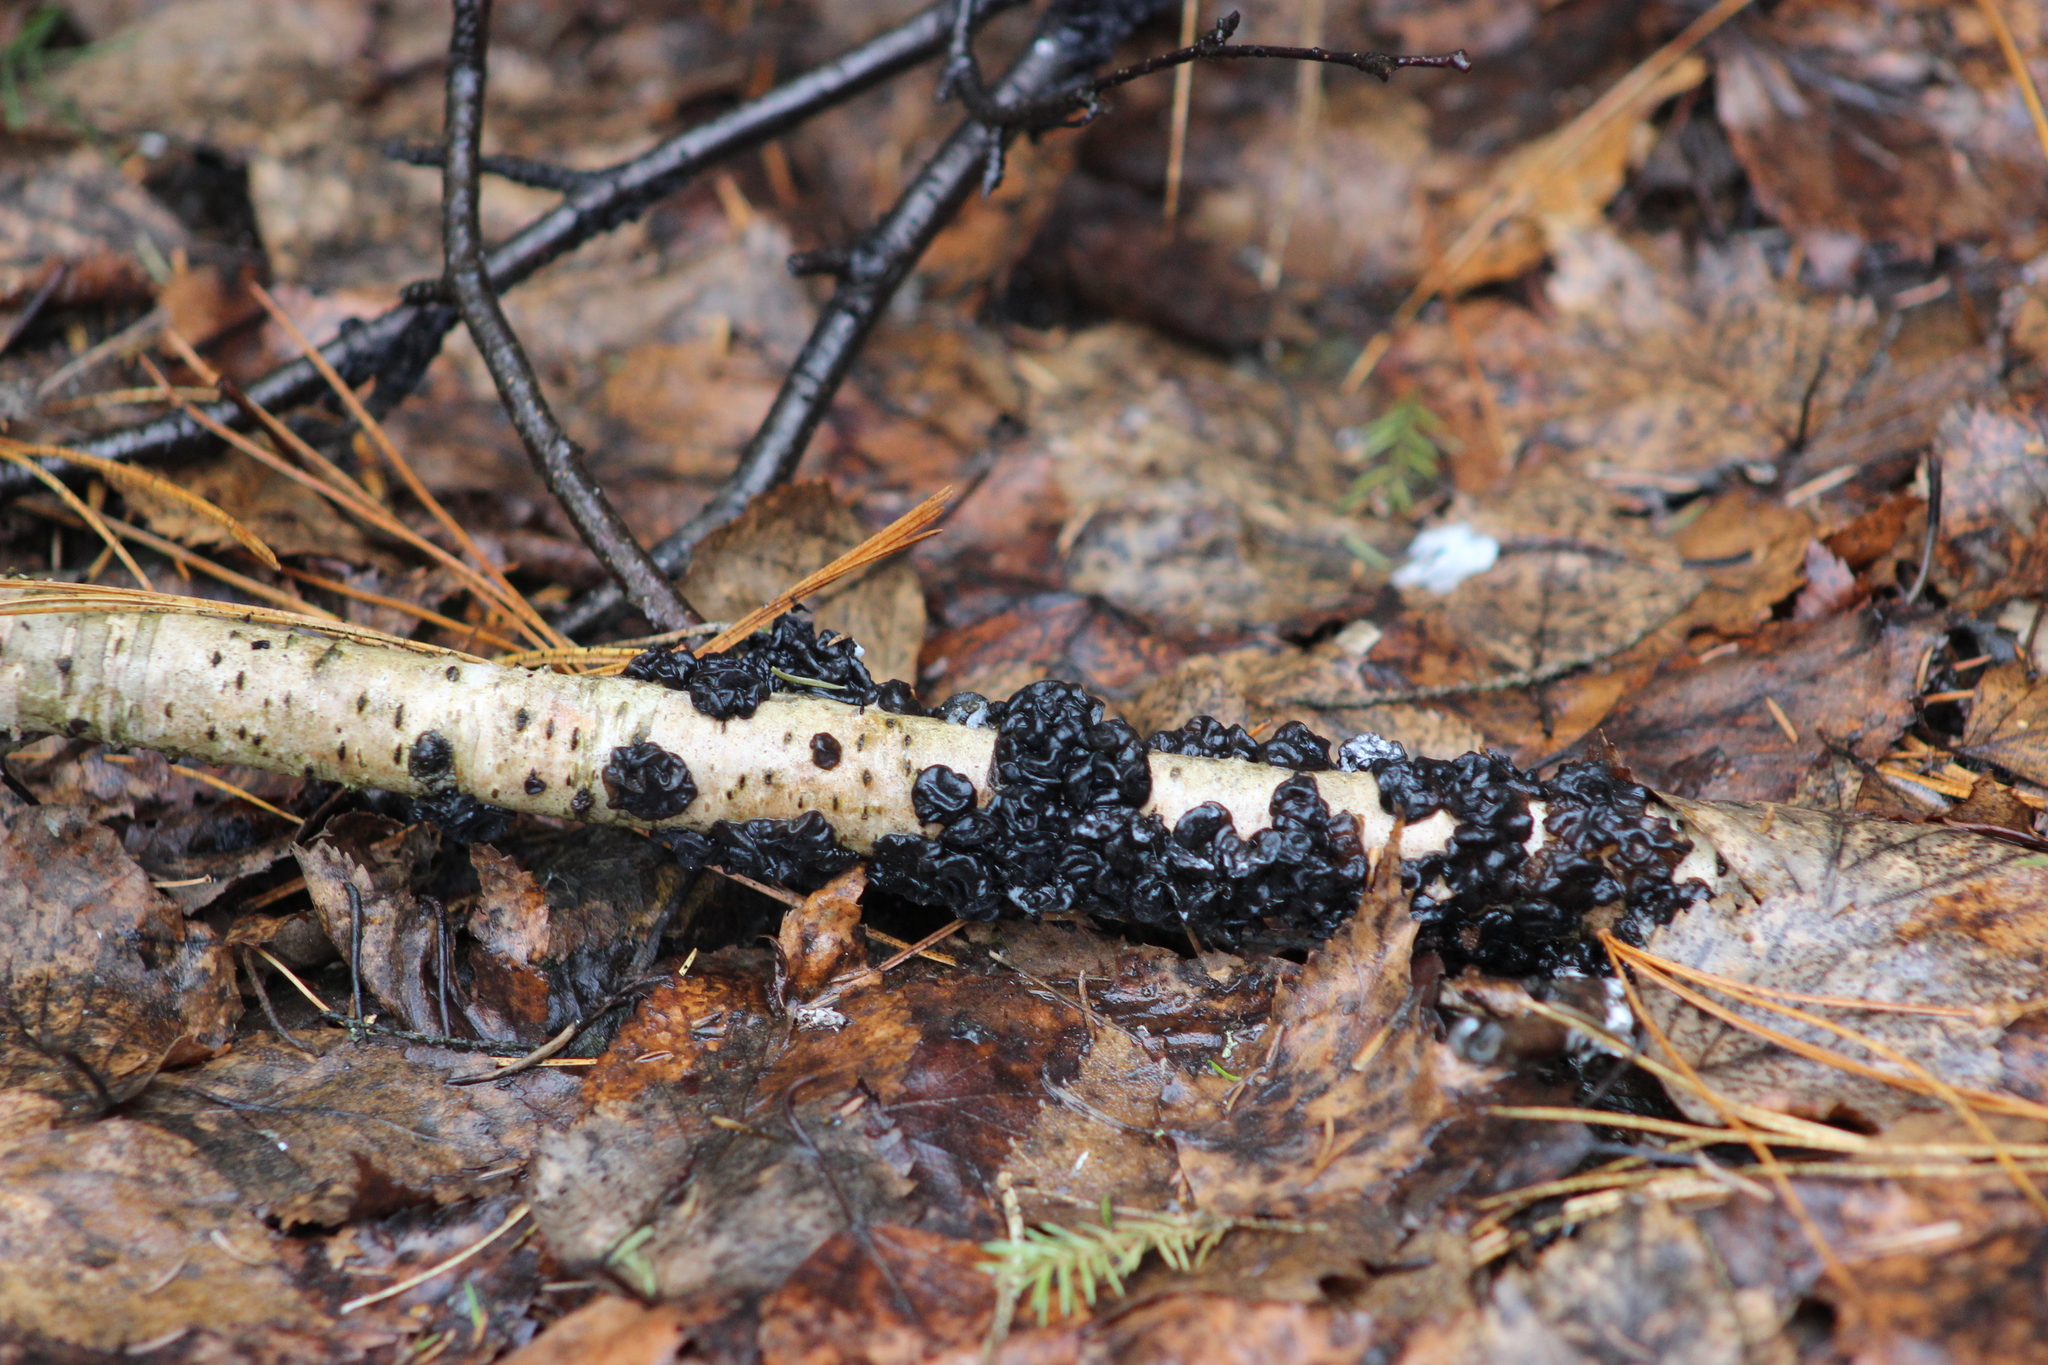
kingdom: Fungi
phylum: Basidiomycota
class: Agaricomycetes
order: Auriculariales
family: Auriculariaceae
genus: Exidia
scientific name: Exidia glandulosa
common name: Witches' butter
